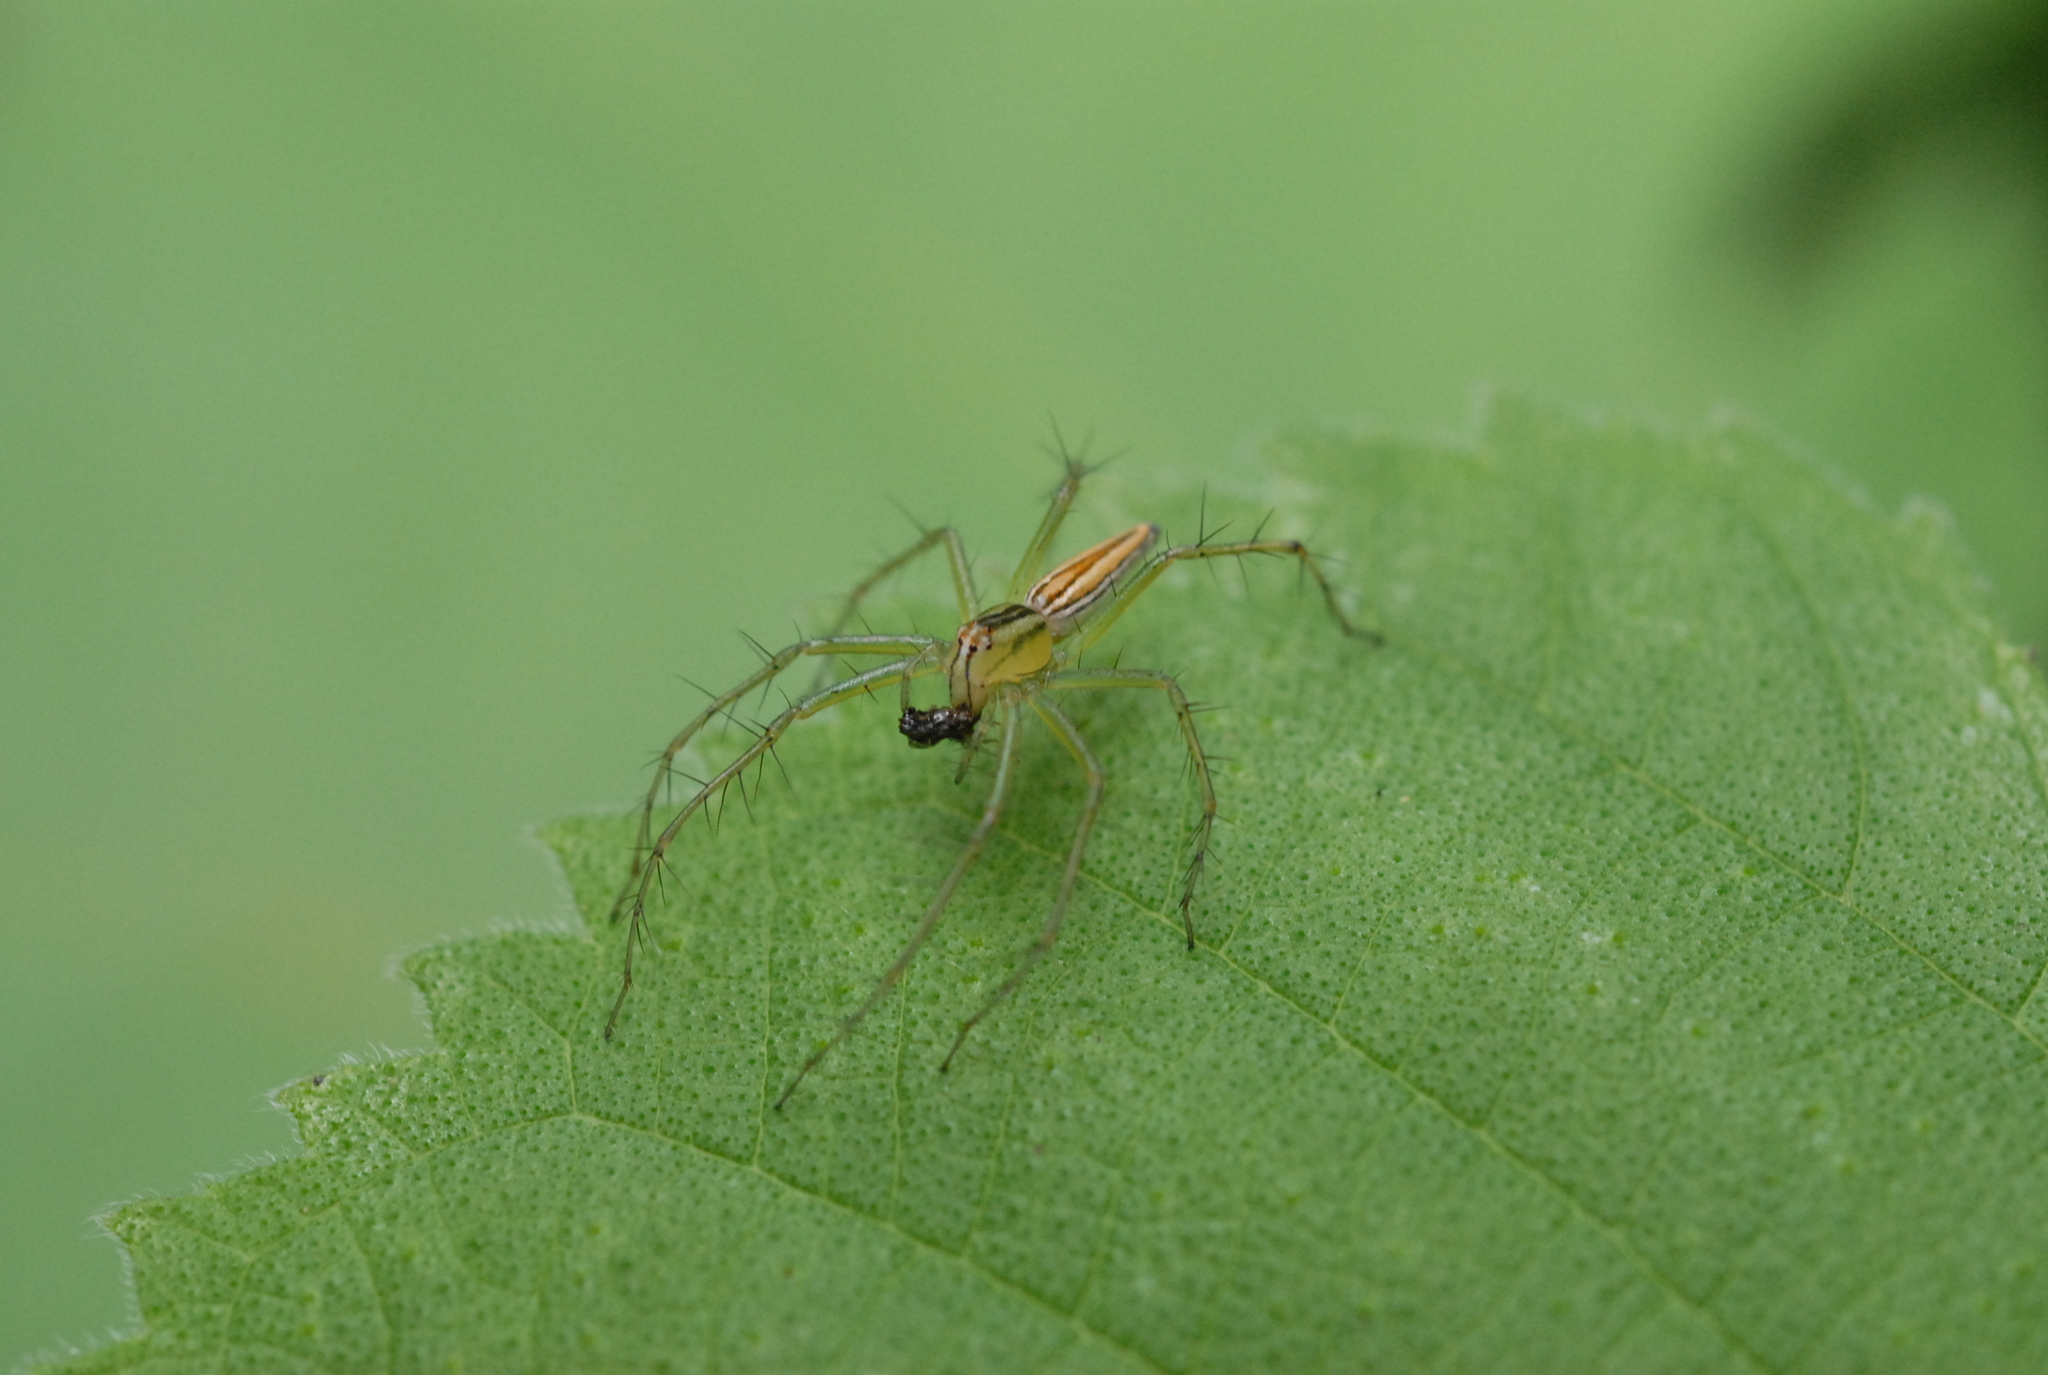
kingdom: Animalia
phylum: Arthropoda
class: Arachnida
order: Araneae
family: Oxyopidae
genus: Oxyopes
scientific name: Oxyopes macilentus
